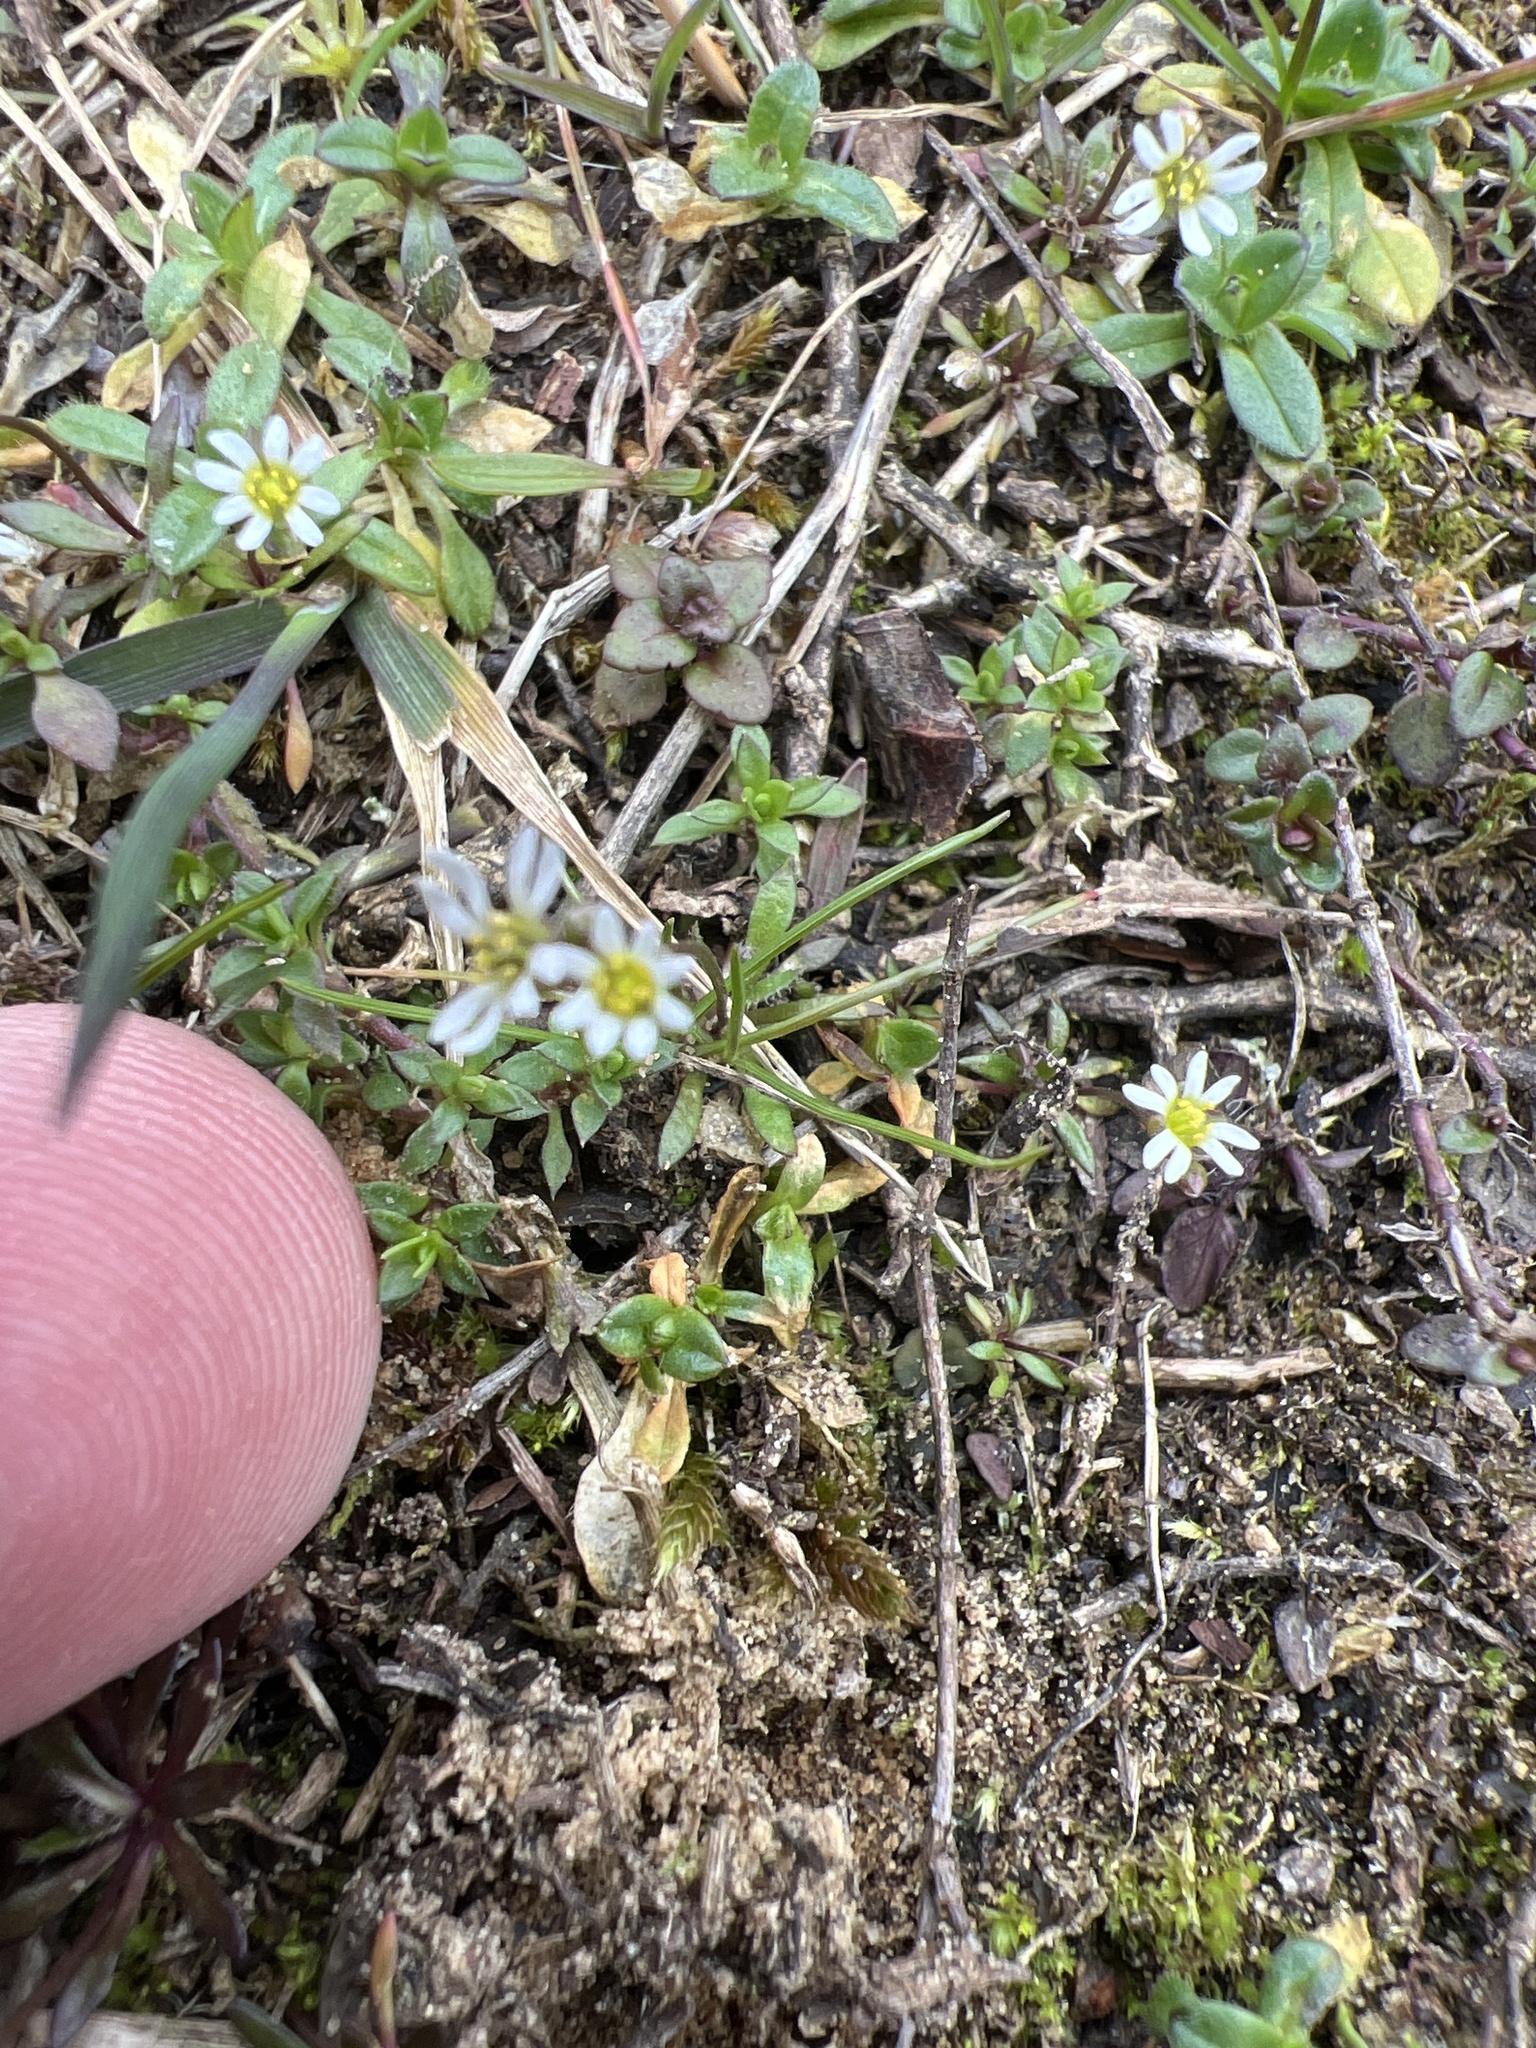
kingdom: Plantae
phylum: Tracheophyta
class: Magnoliopsida
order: Brassicales
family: Brassicaceae
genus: Draba
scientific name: Draba verna
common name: Spring draba
